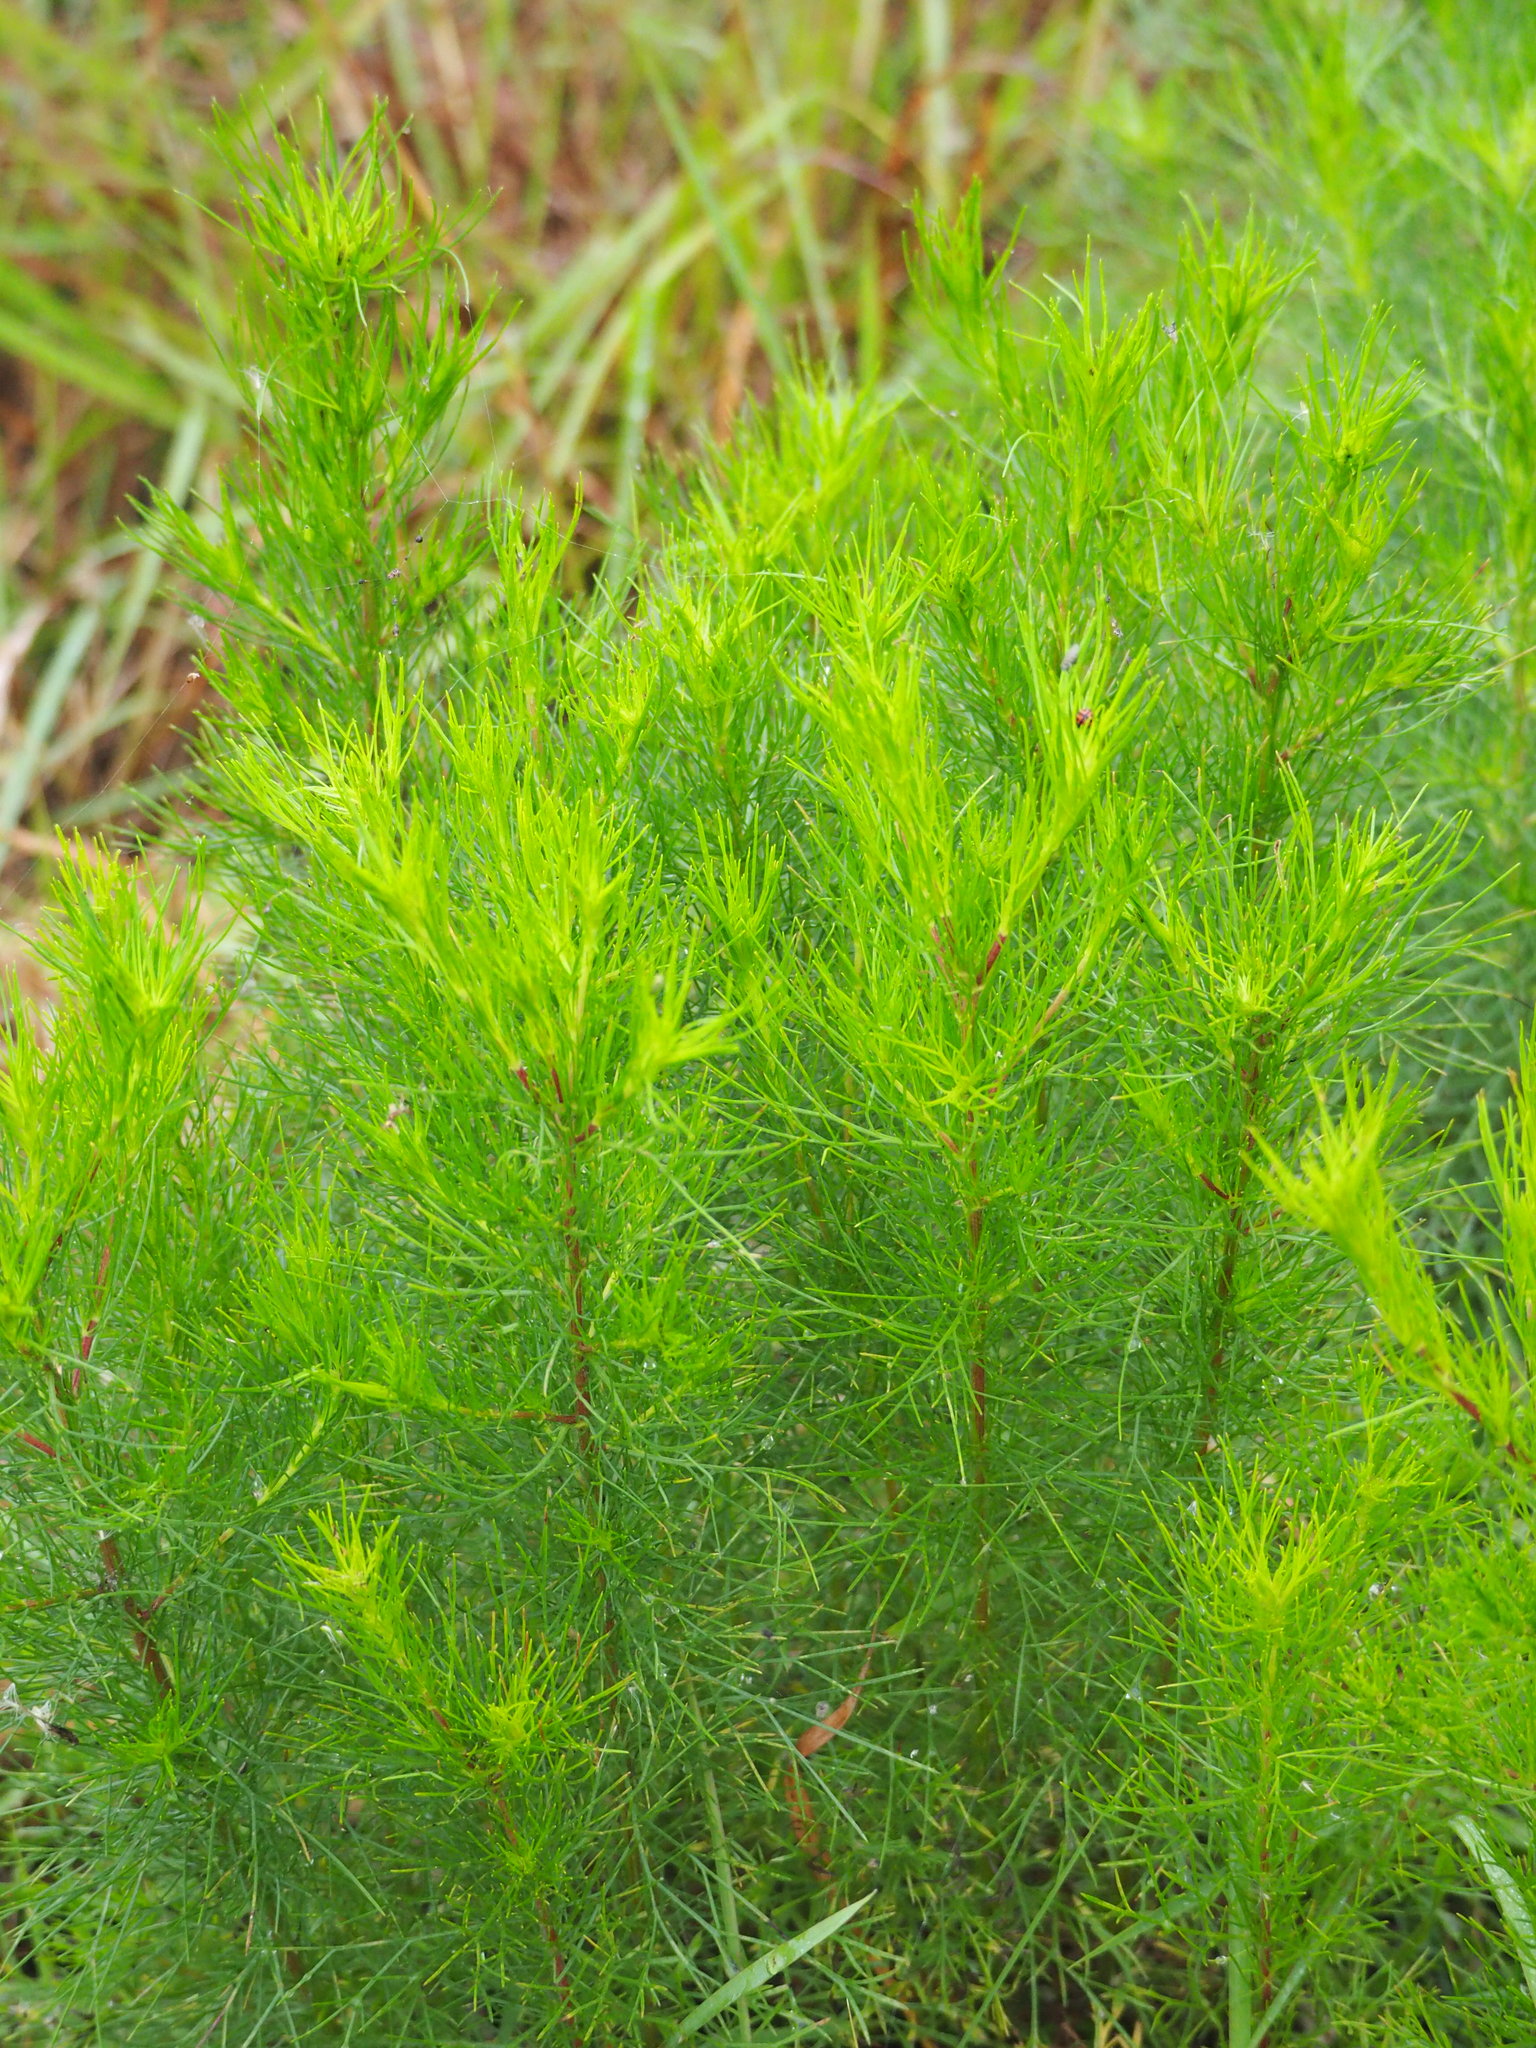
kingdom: Plantae
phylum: Tracheophyta
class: Magnoliopsida
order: Asterales
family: Asteraceae
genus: Artemisia
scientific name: Artemisia capillaris
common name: Yin-chen wormwood
